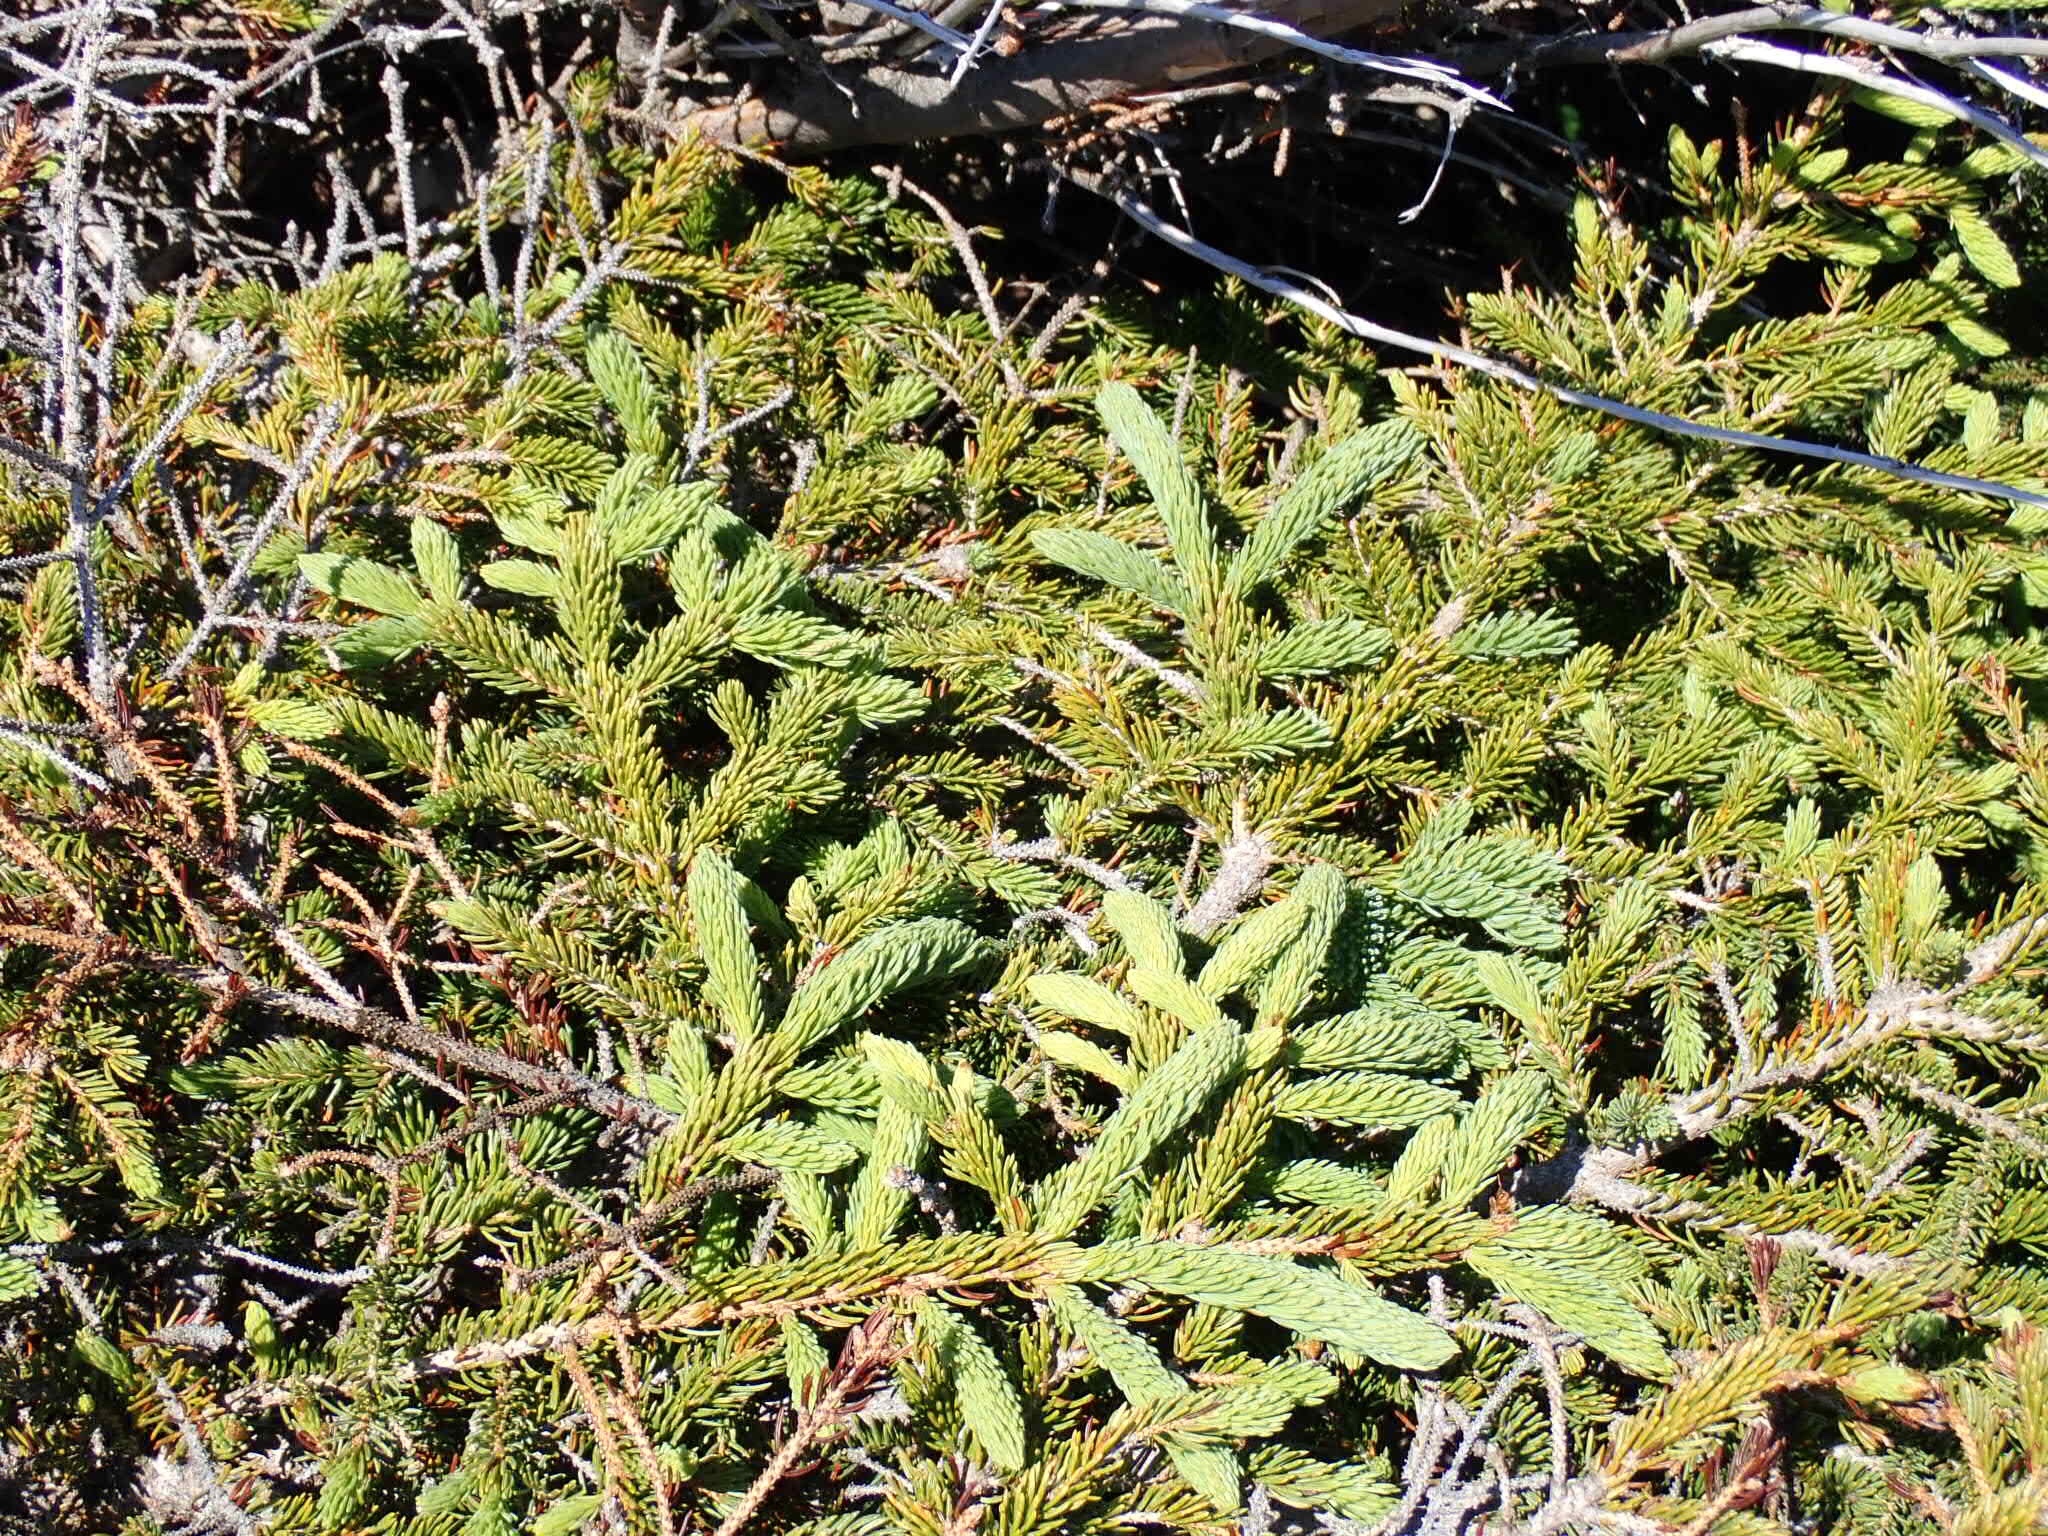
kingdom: Plantae
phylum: Tracheophyta
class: Pinopsida
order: Pinales
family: Pinaceae
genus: Picea
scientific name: Picea glauca
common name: White spruce
